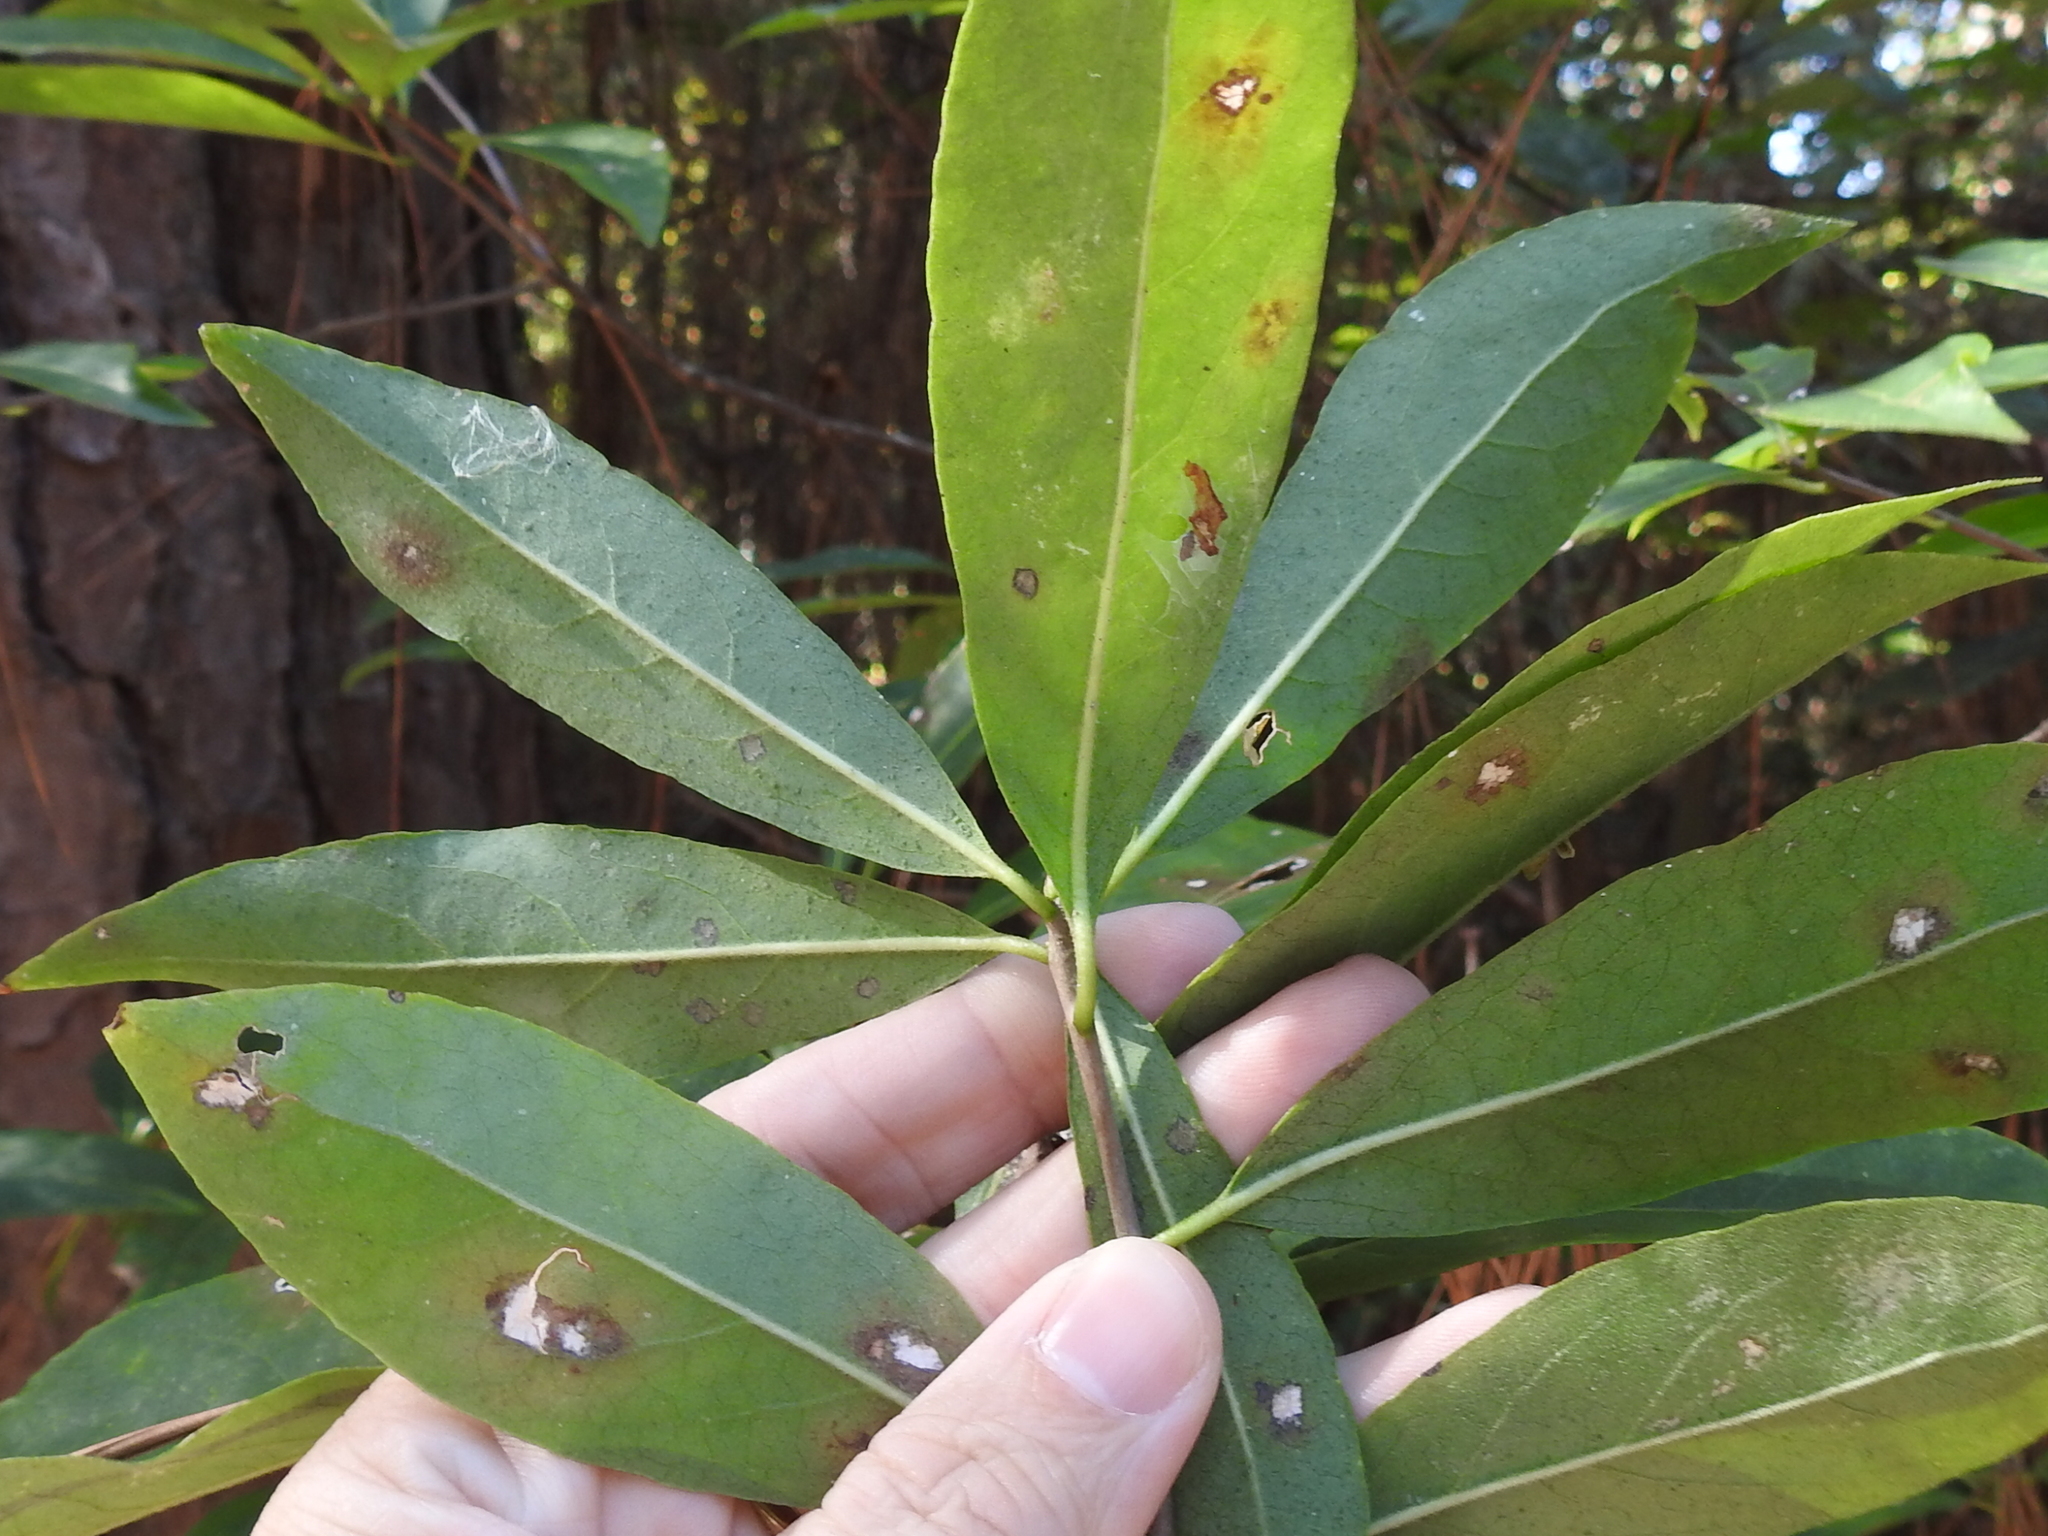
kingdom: Plantae
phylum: Tracheophyta
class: Magnoliopsida
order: Ericales
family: Symplocaceae
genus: Symplocos
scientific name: Symplocos tinctoria
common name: Horse-sugar
